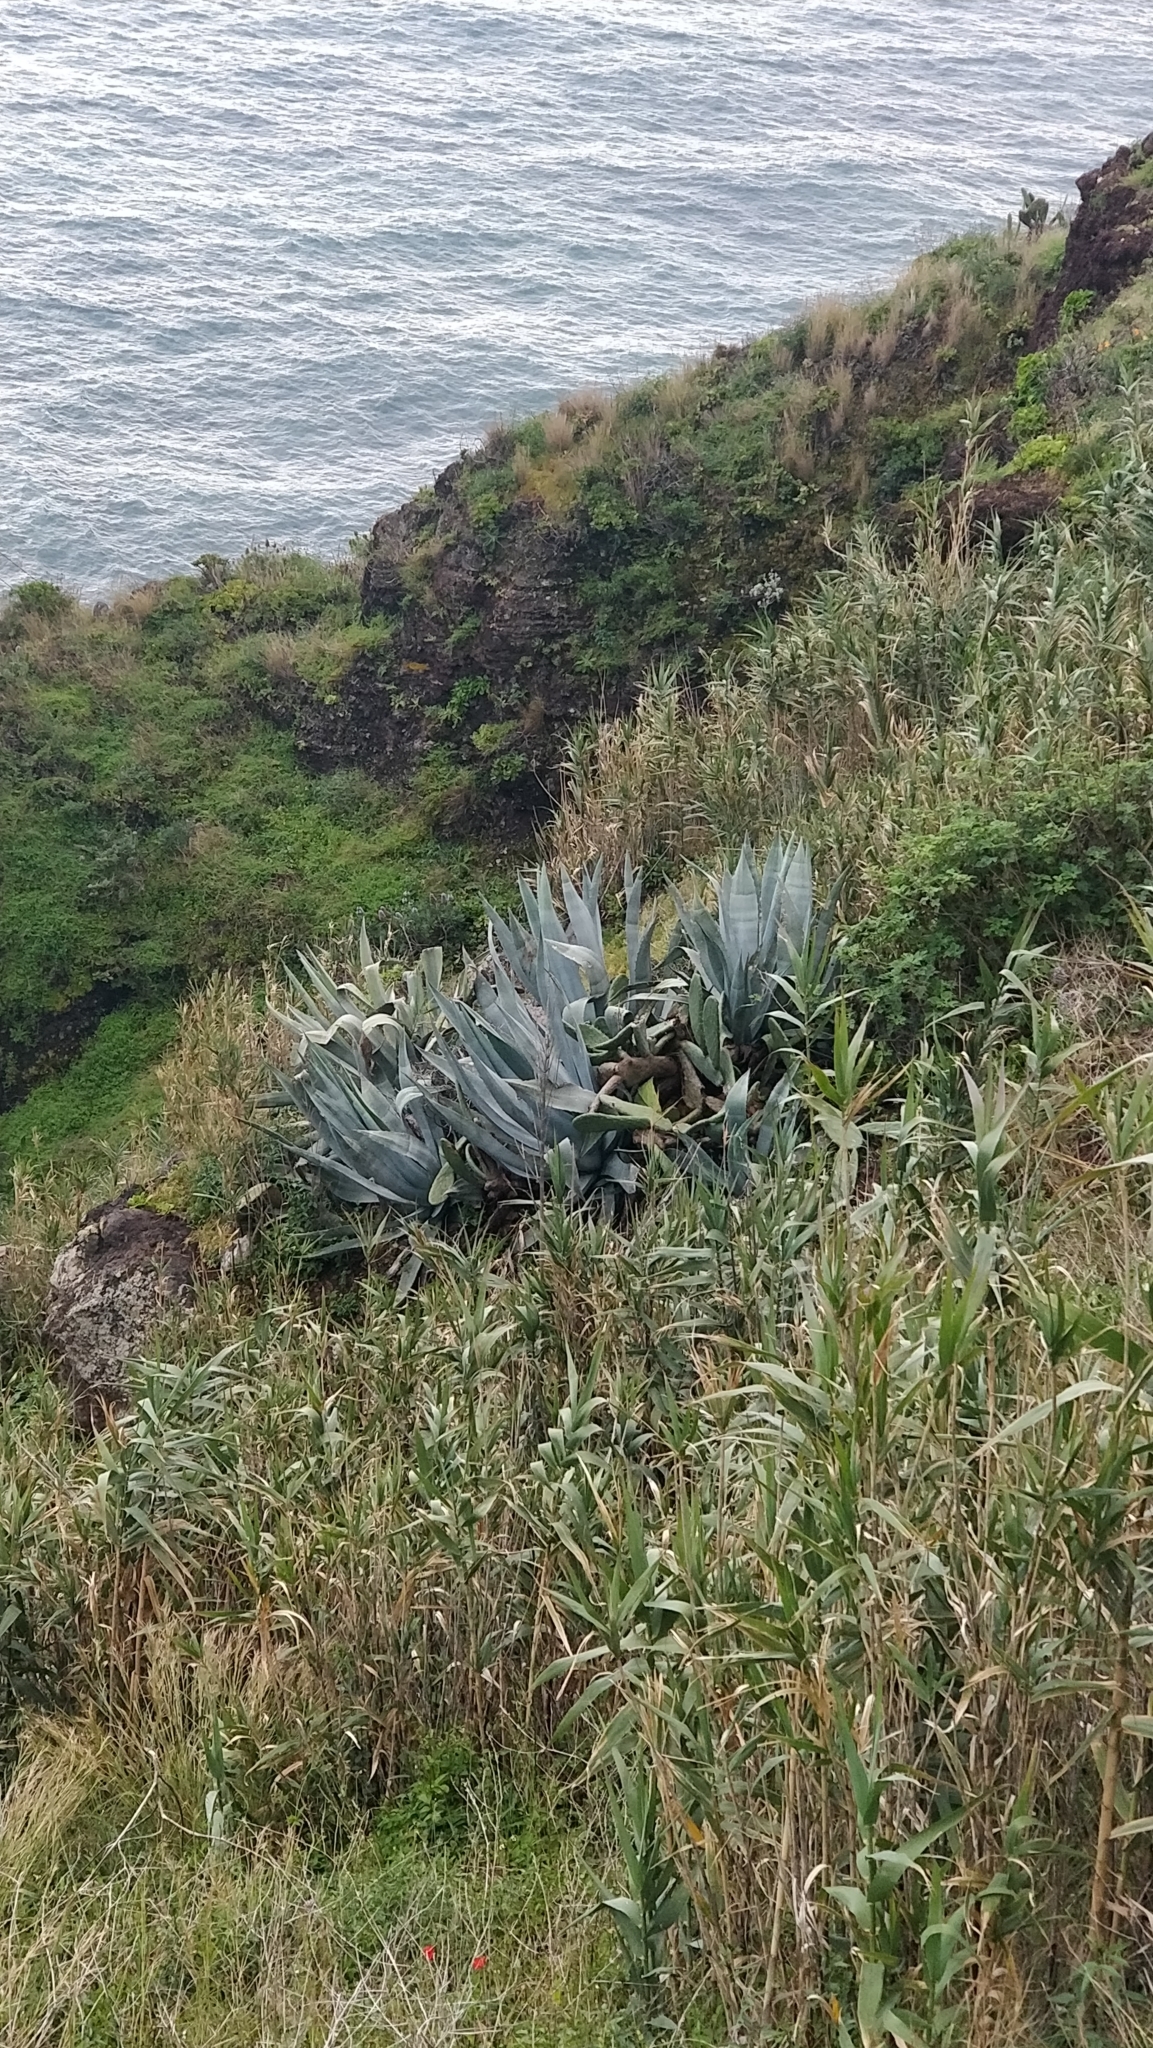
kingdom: Plantae
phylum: Tracheophyta
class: Liliopsida
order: Asparagales
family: Asparagaceae
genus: Agave
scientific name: Agave americana
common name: Centuryplant
